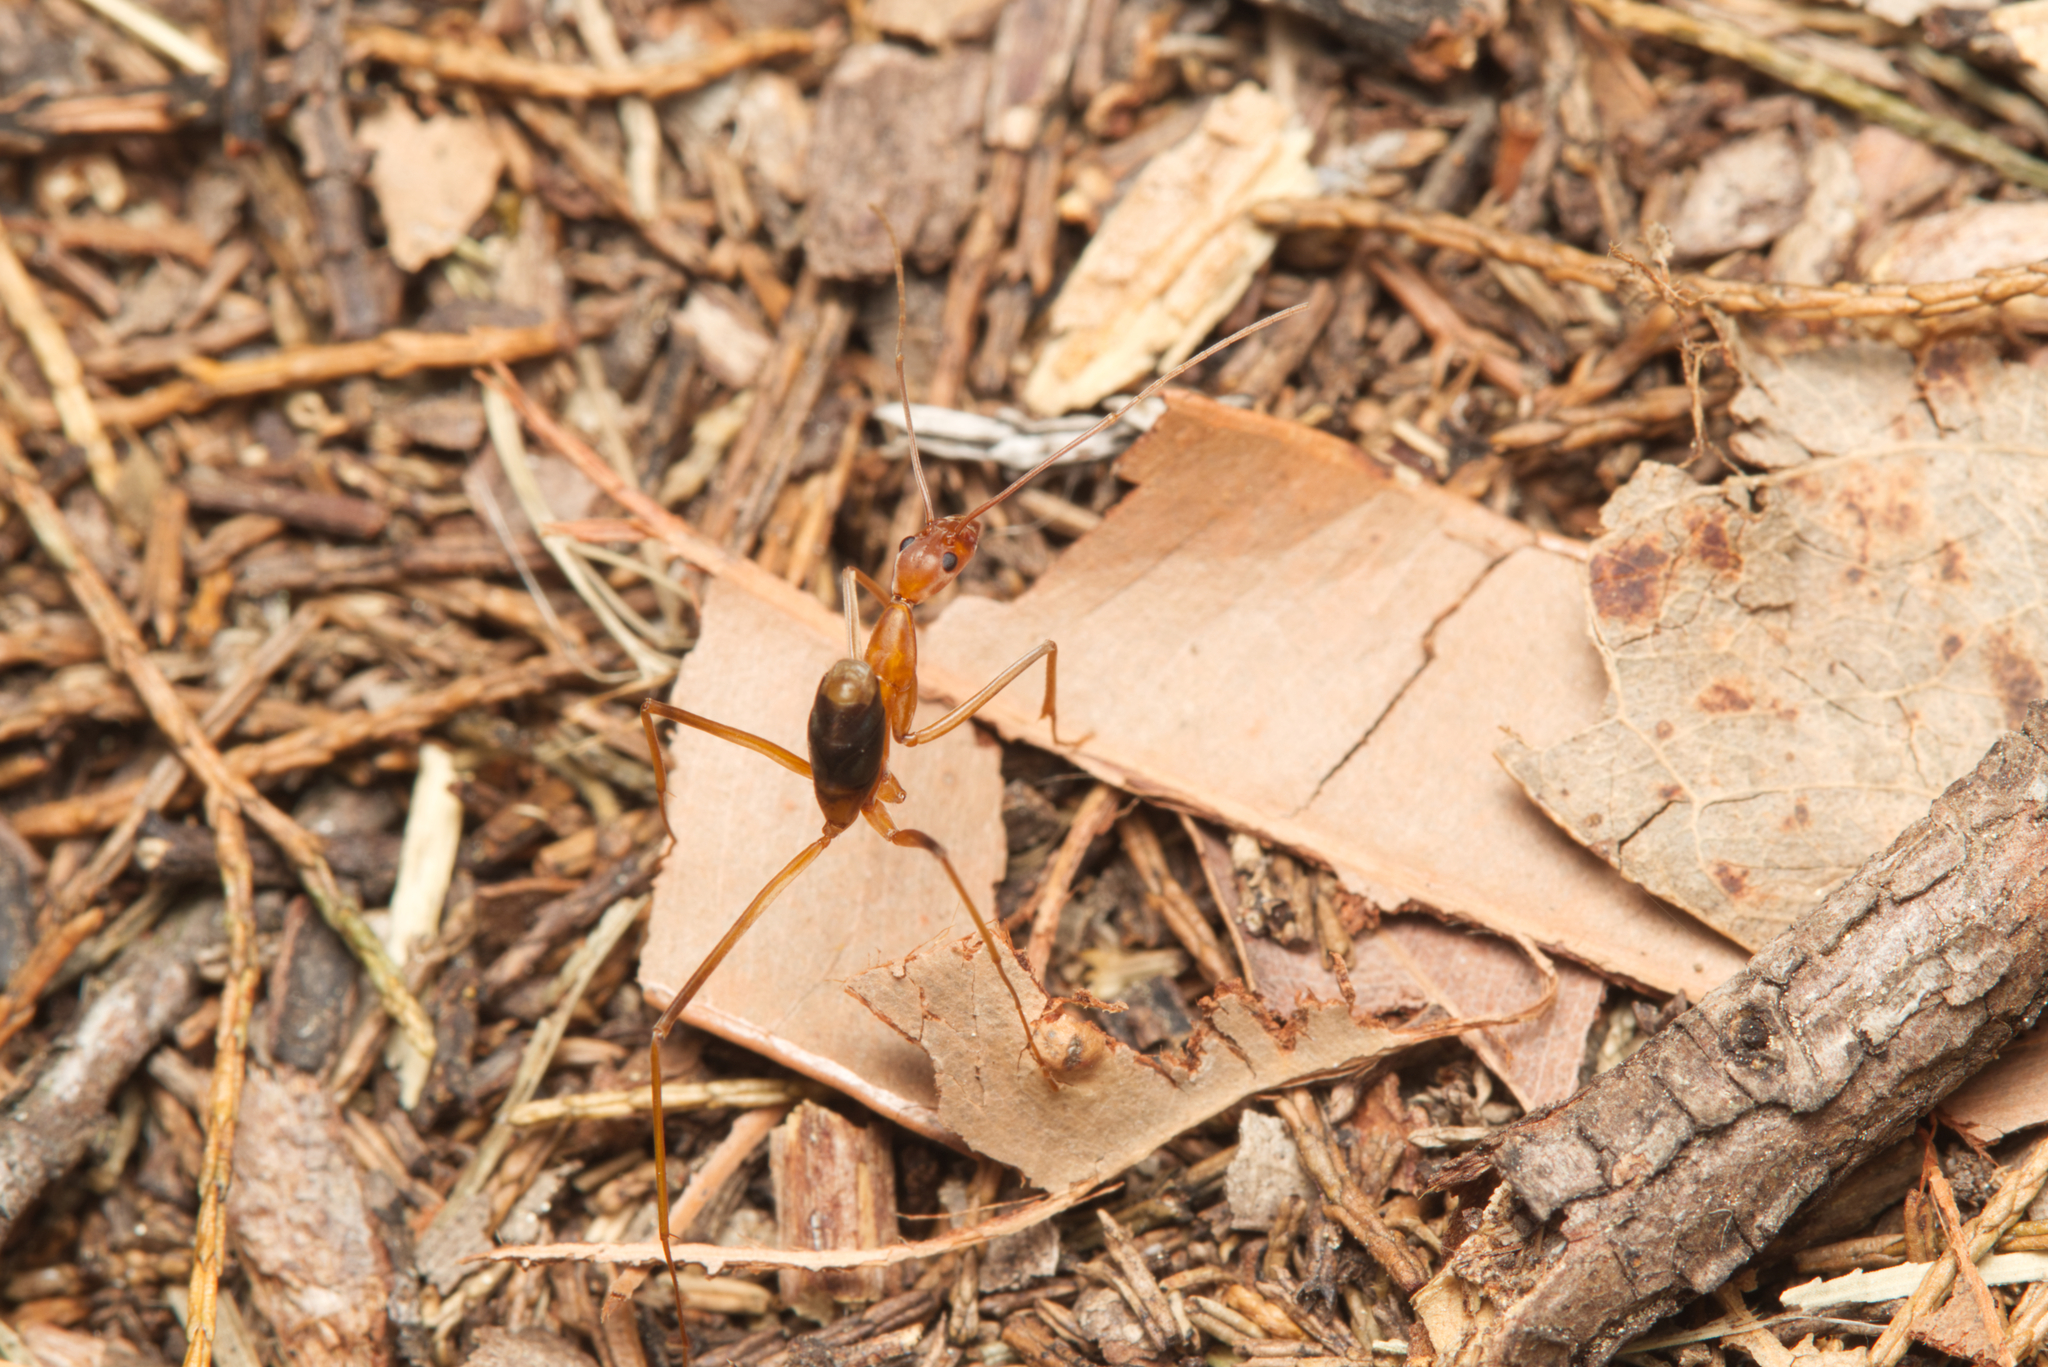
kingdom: Animalia
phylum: Arthropoda
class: Insecta
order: Hymenoptera
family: Formicidae
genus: Leptomyrmex
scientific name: Leptomyrmex rufipes
